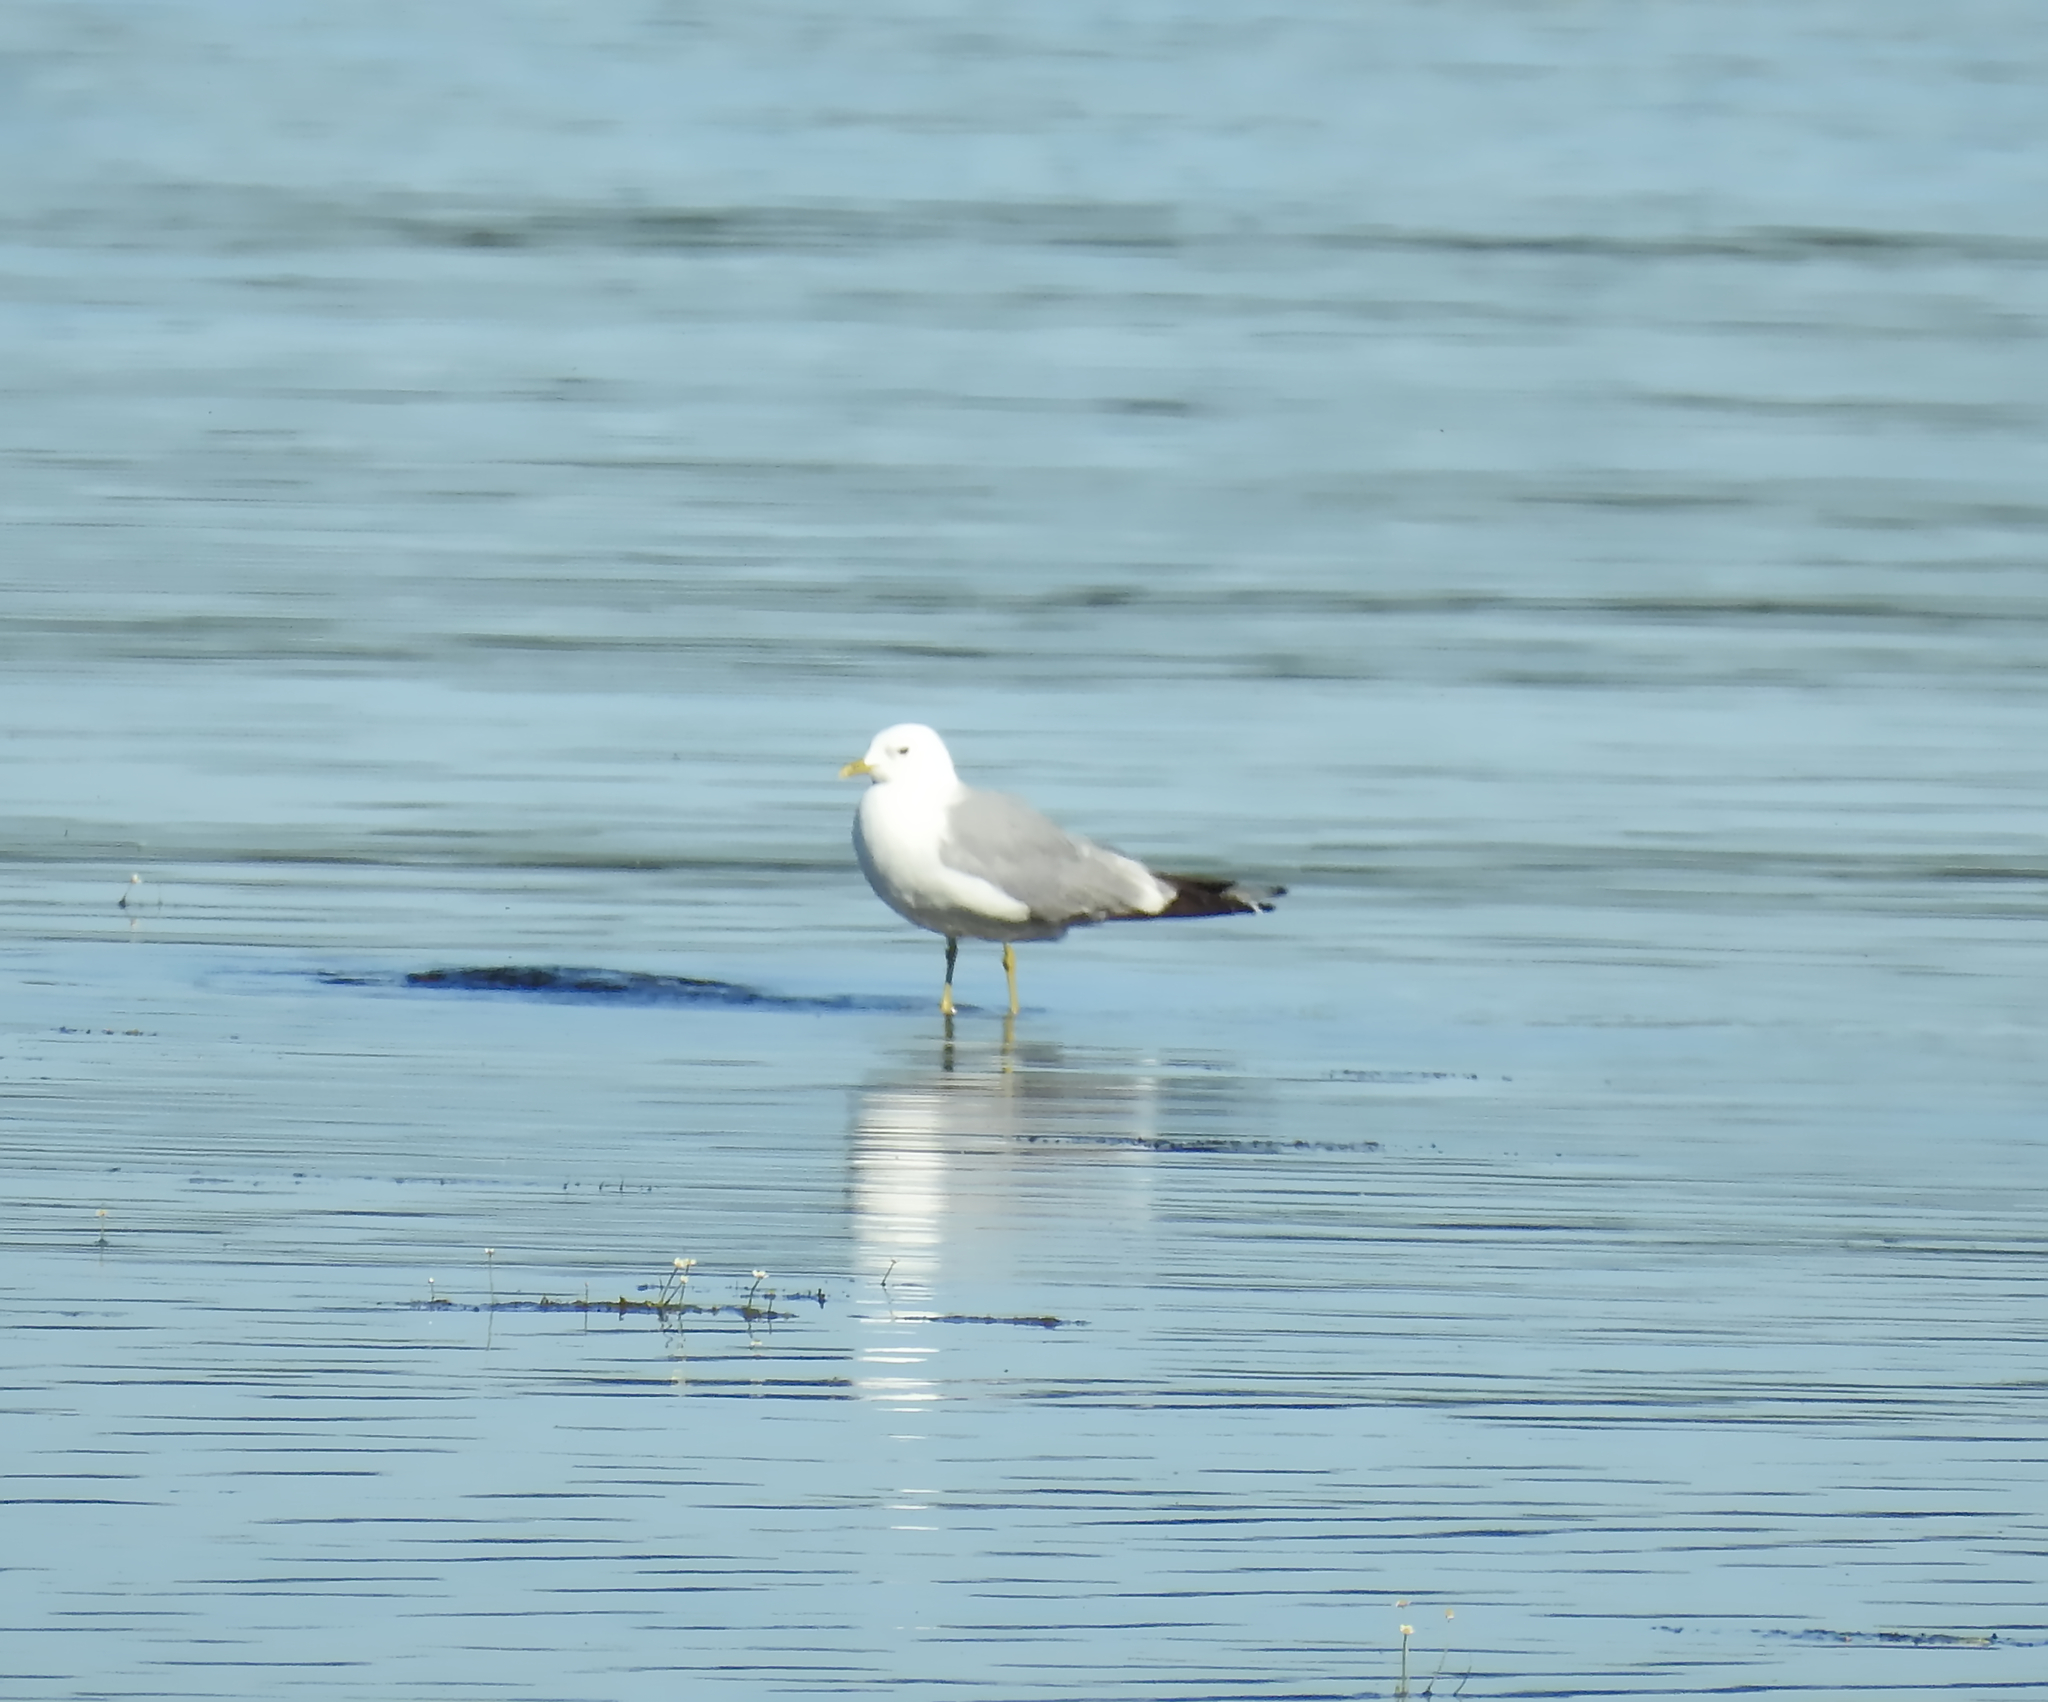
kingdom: Animalia
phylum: Chordata
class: Aves
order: Charadriiformes
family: Laridae
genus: Larus
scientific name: Larus canus
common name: Mew gull
